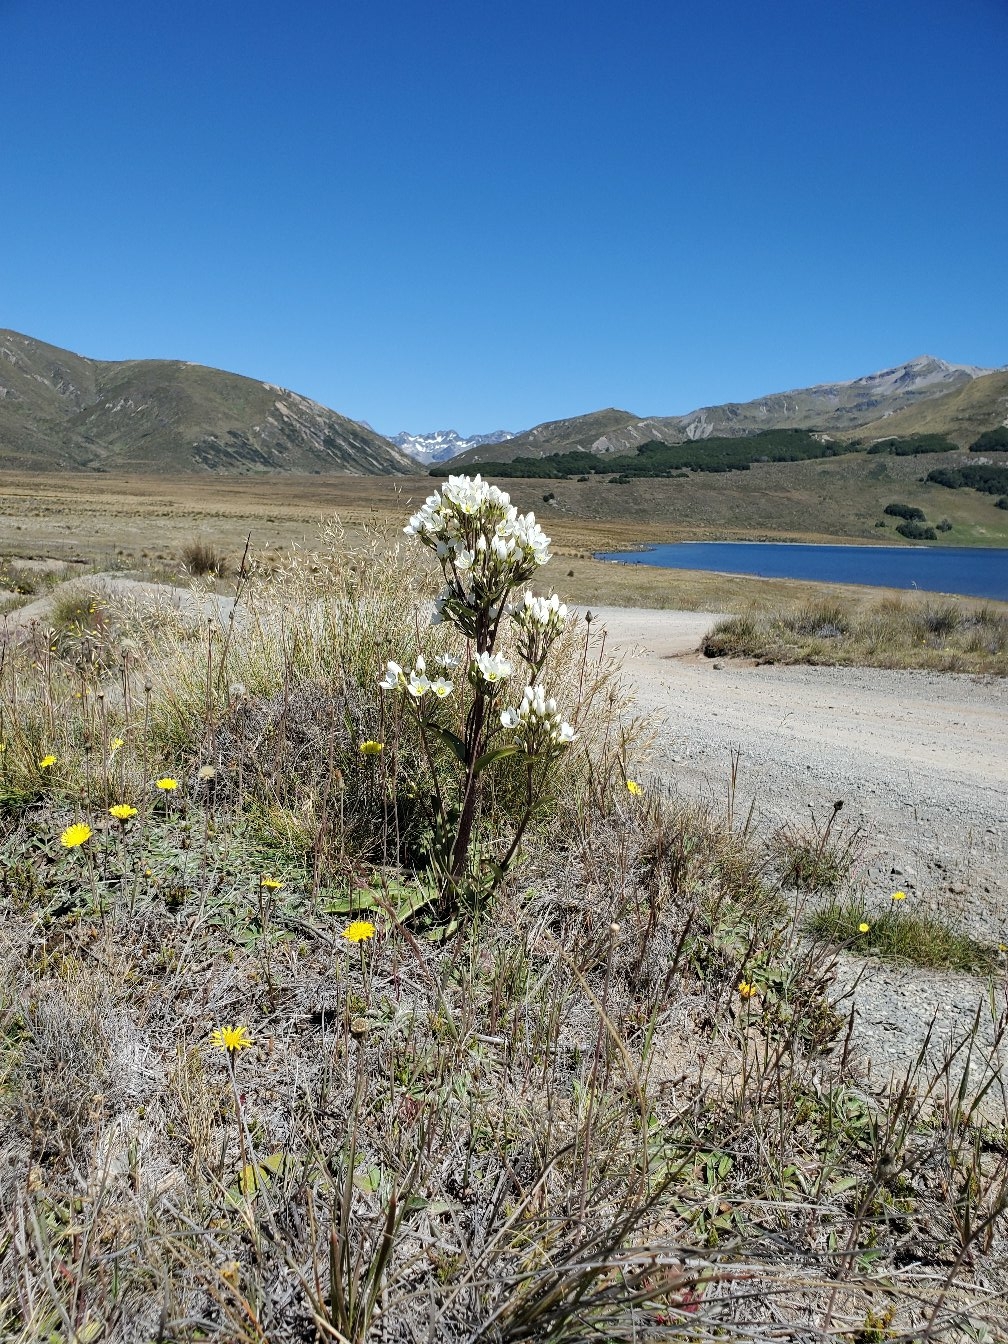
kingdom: Plantae
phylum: Tracheophyta
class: Magnoliopsida
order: Gentianales
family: Gentianaceae
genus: Gentianella
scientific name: Gentianella corymbifera
